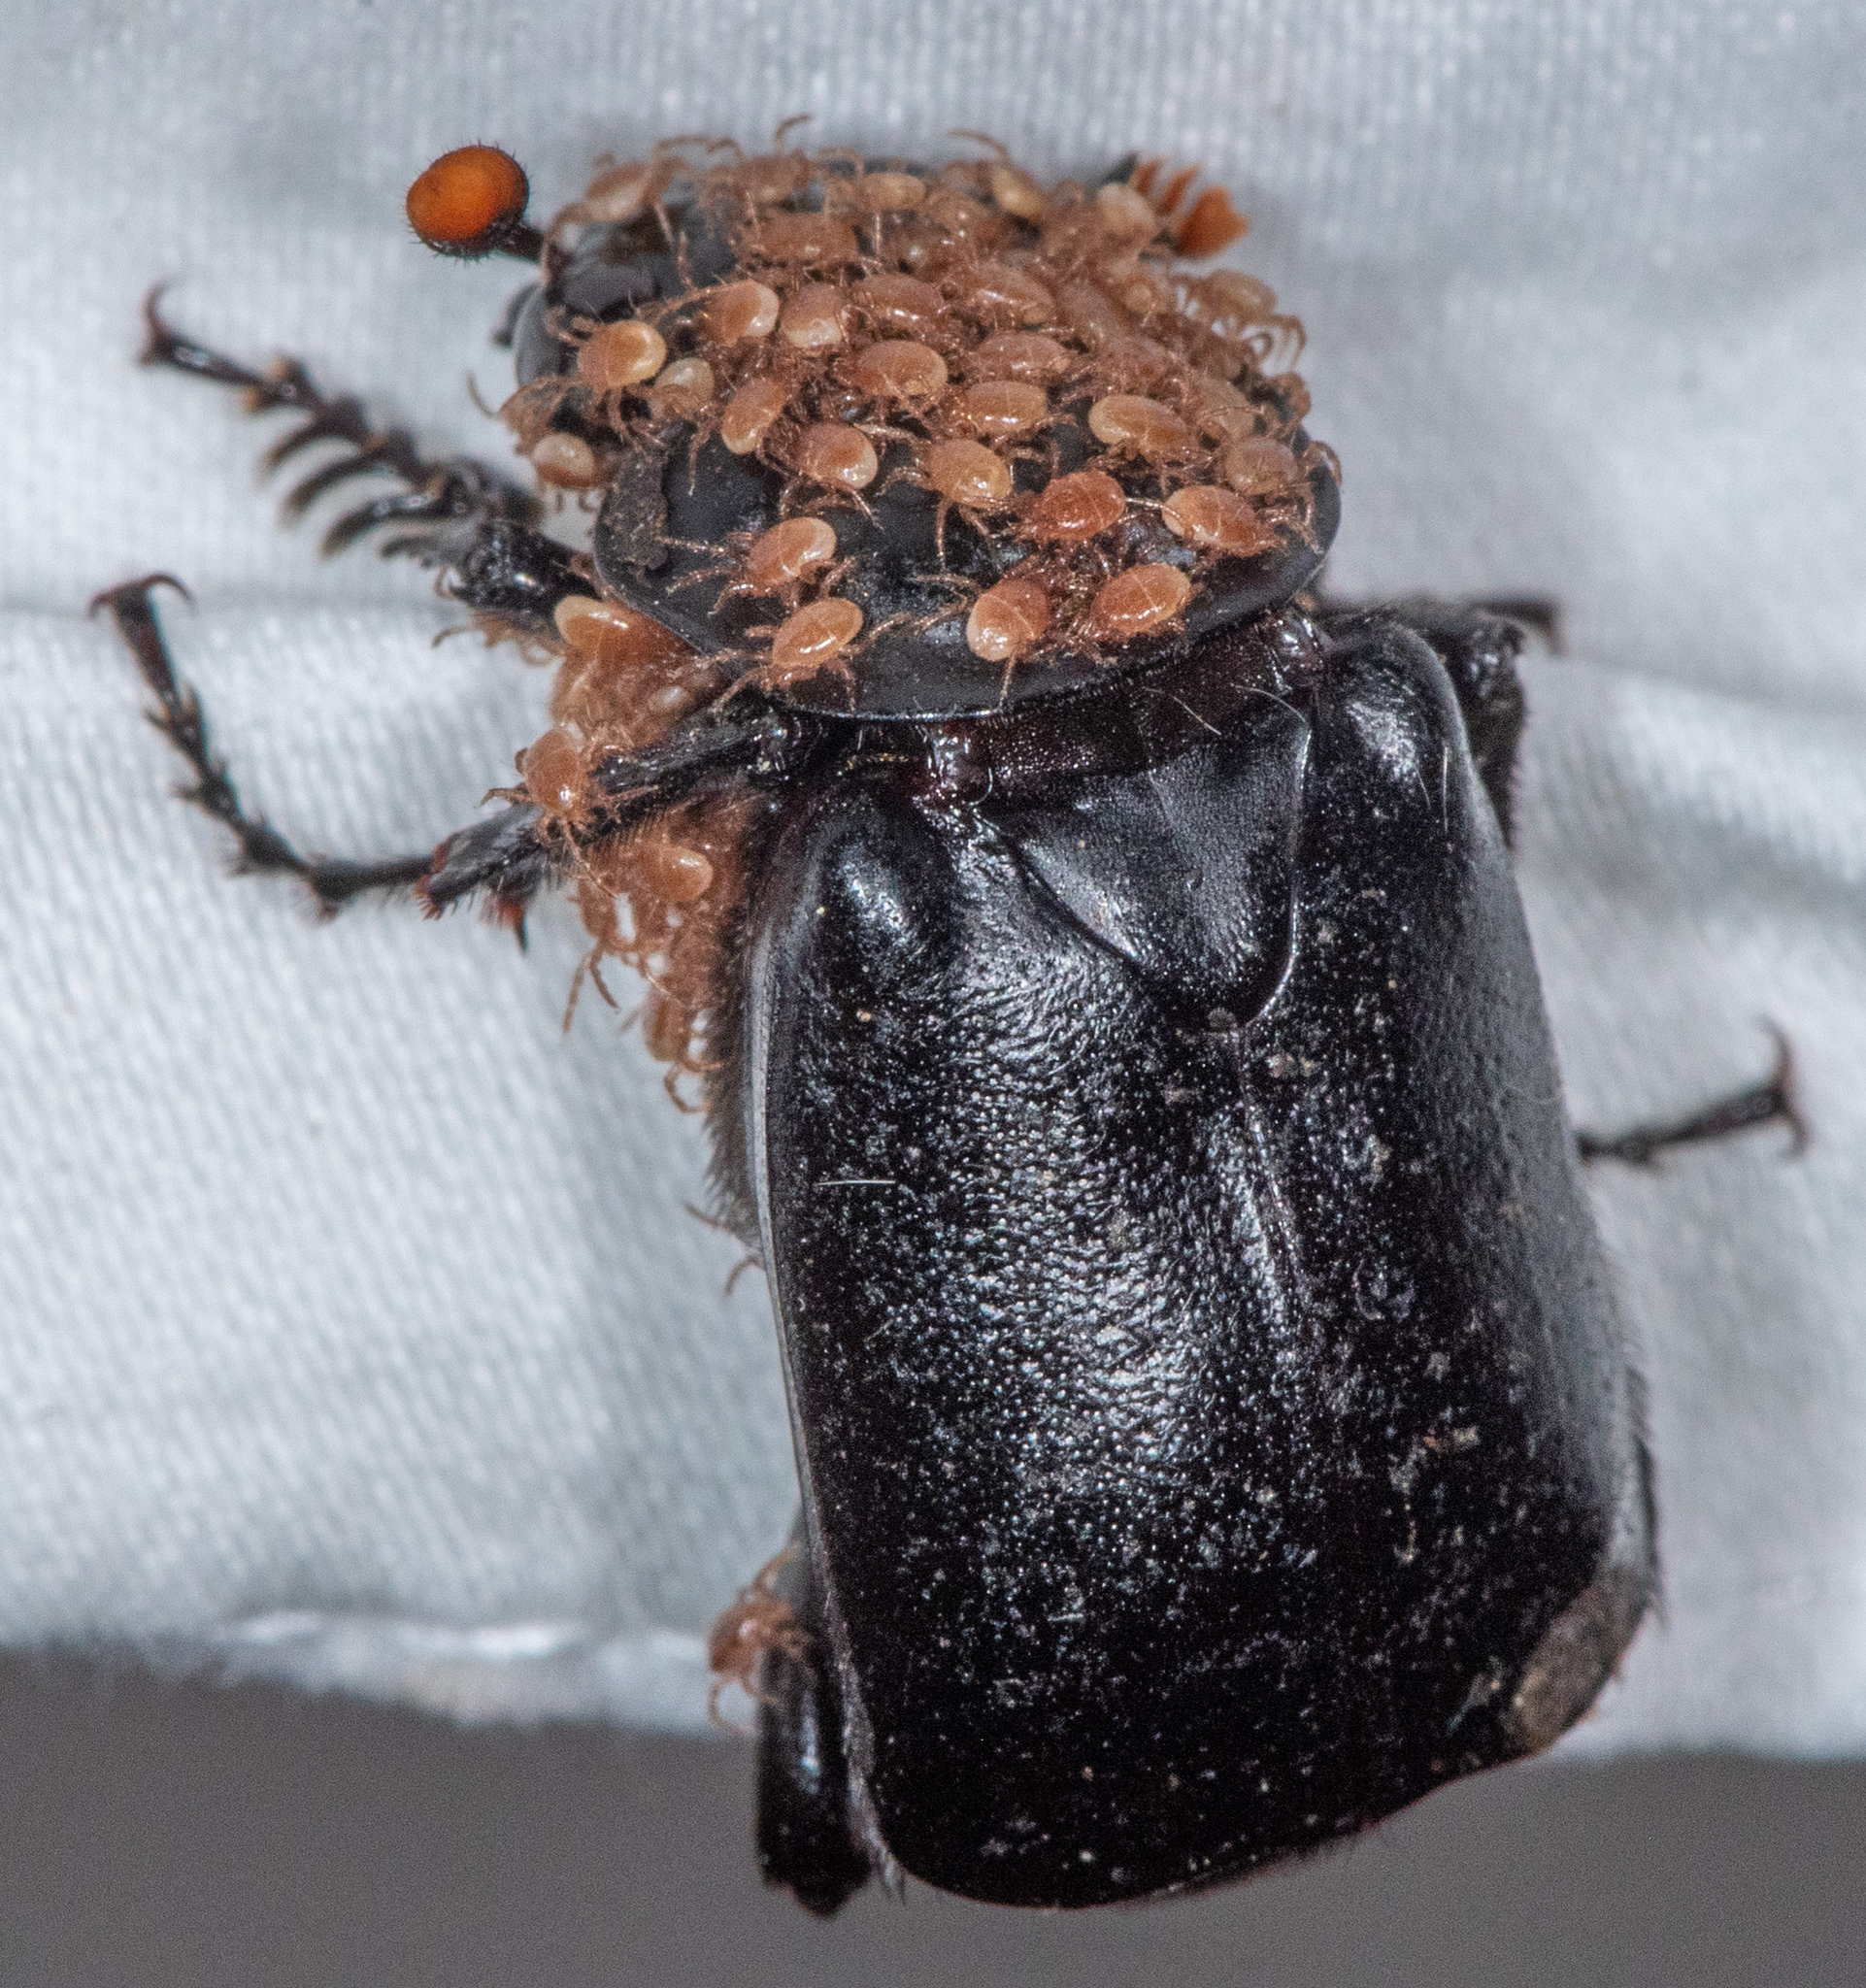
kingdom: Animalia
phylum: Arthropoda
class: Insecta
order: Coleoptera
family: Staphylinidae
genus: Nicrophorus
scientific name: Nicrophorus nigrita
